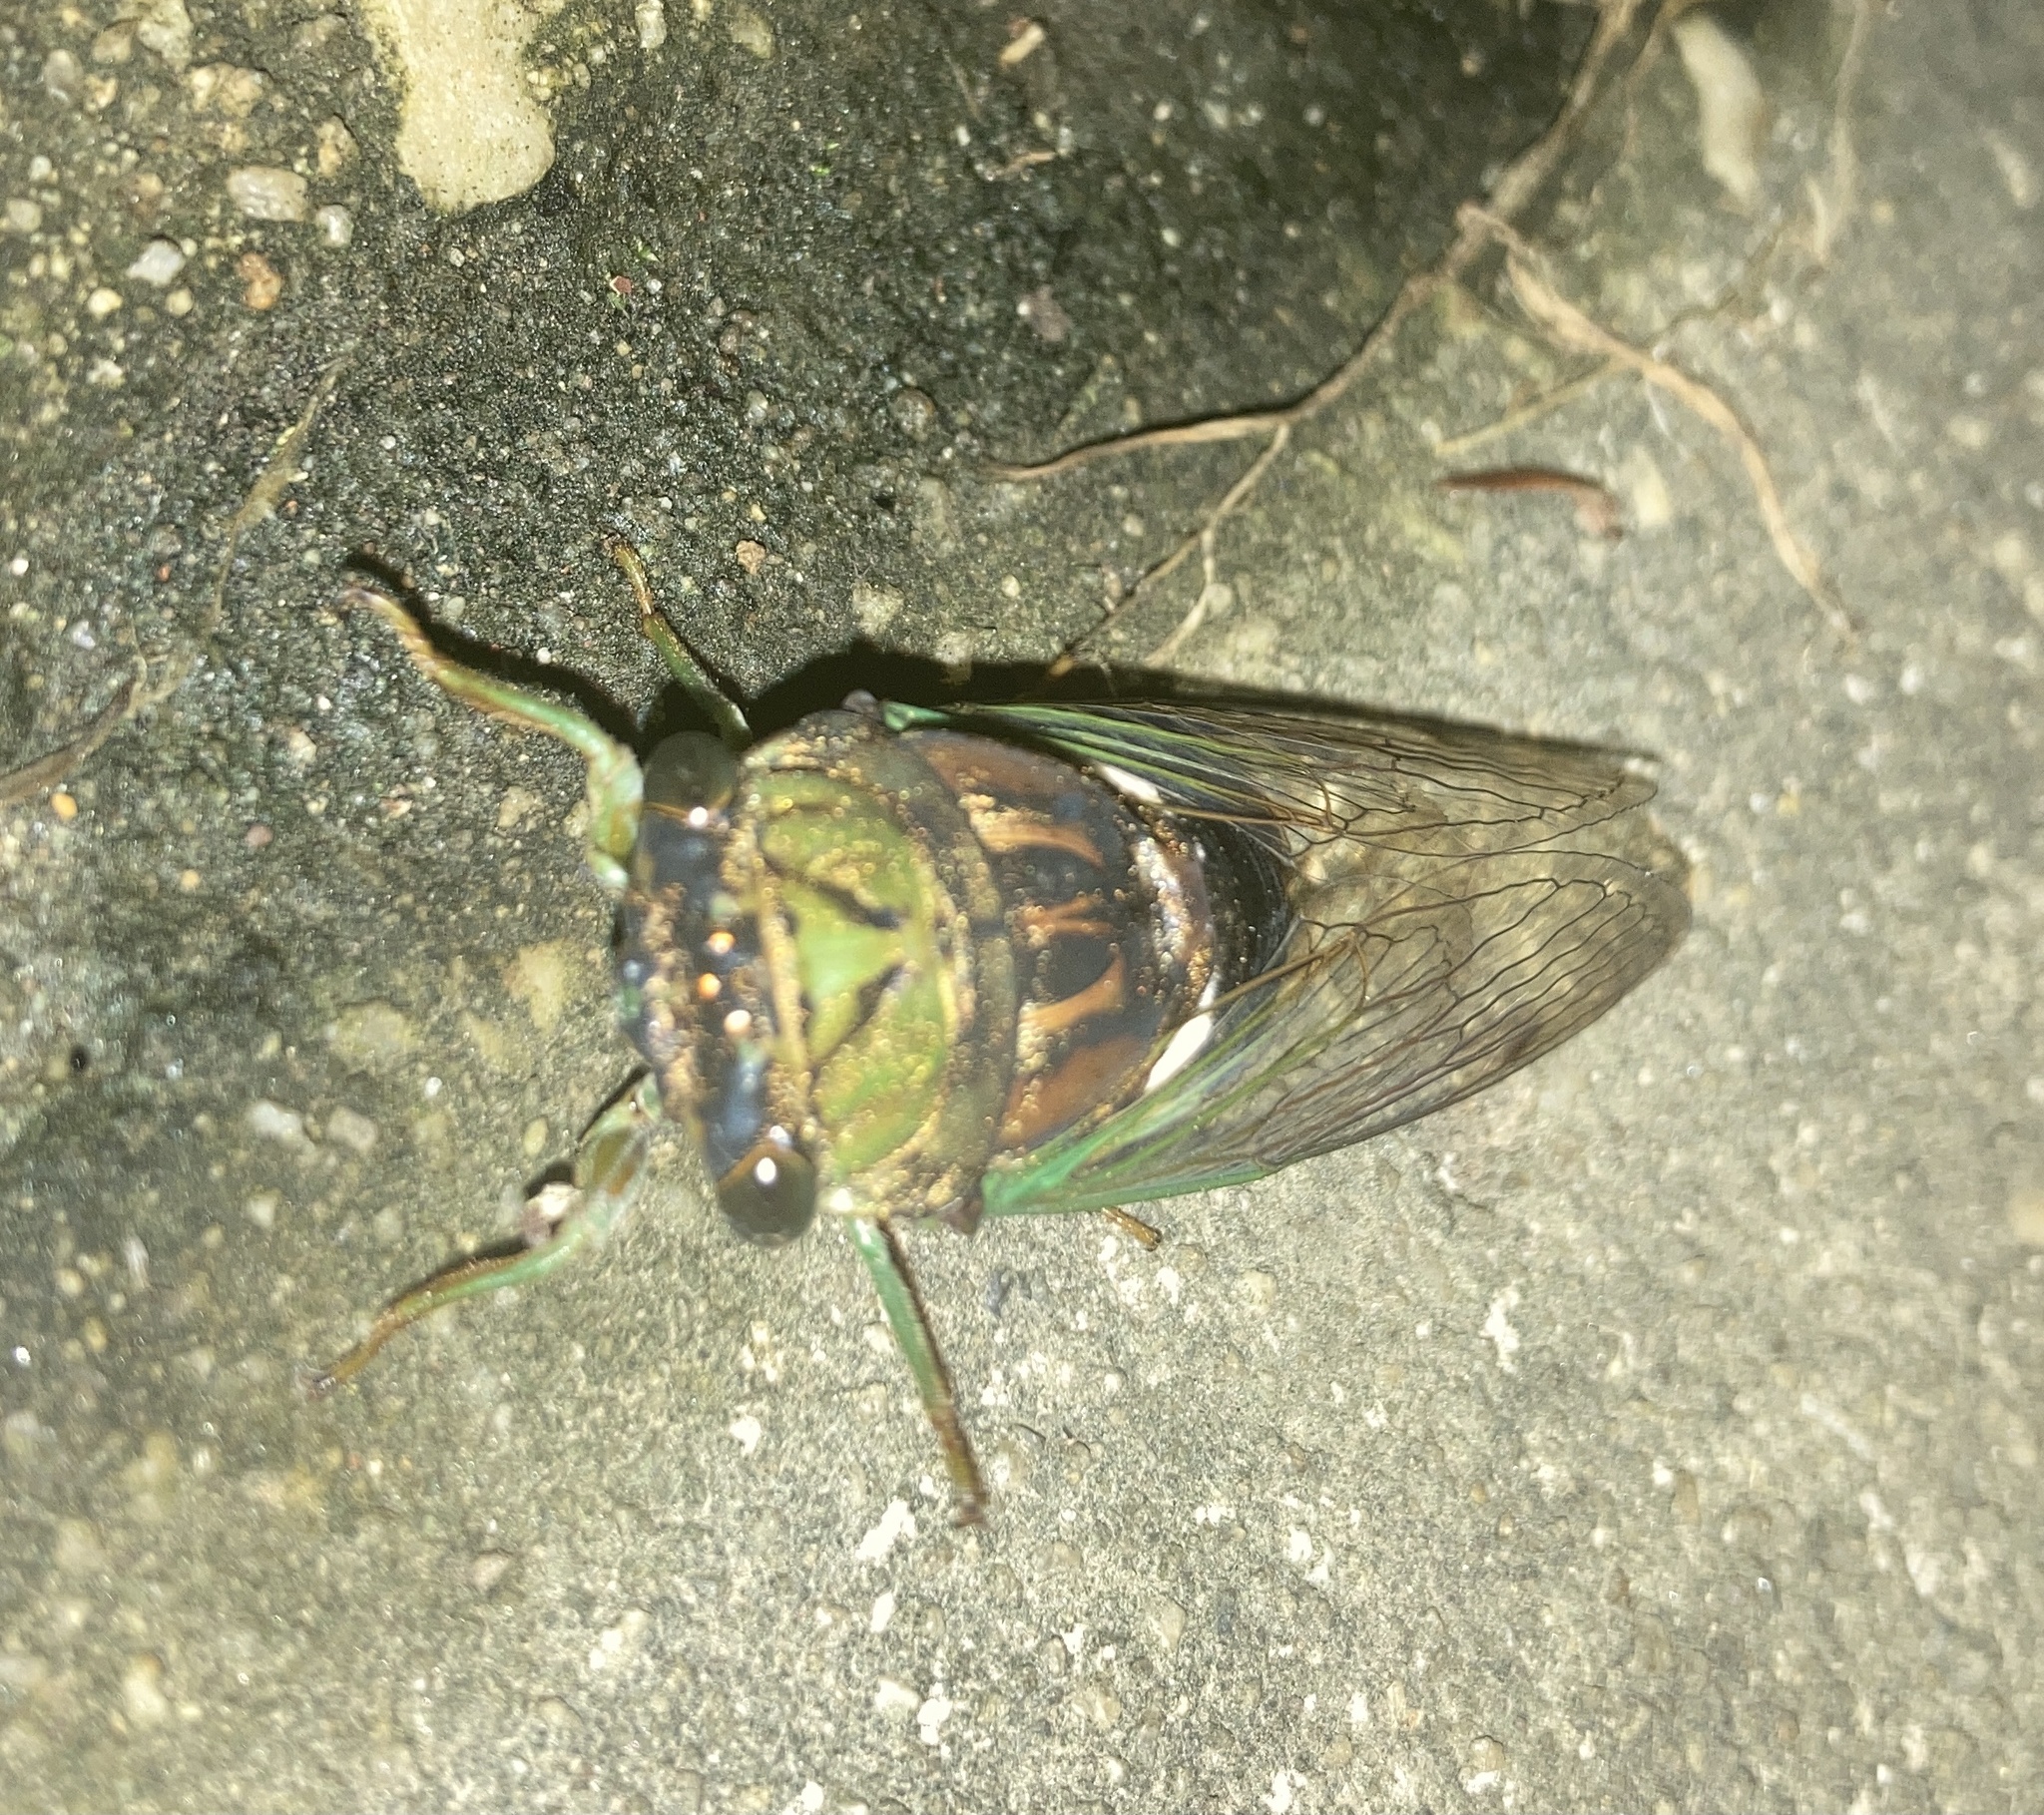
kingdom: Animalia
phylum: Arthropoda
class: Insecta
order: Hemiptera
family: Cicadidae
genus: Neotibicen
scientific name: Neotibicen tibicen
